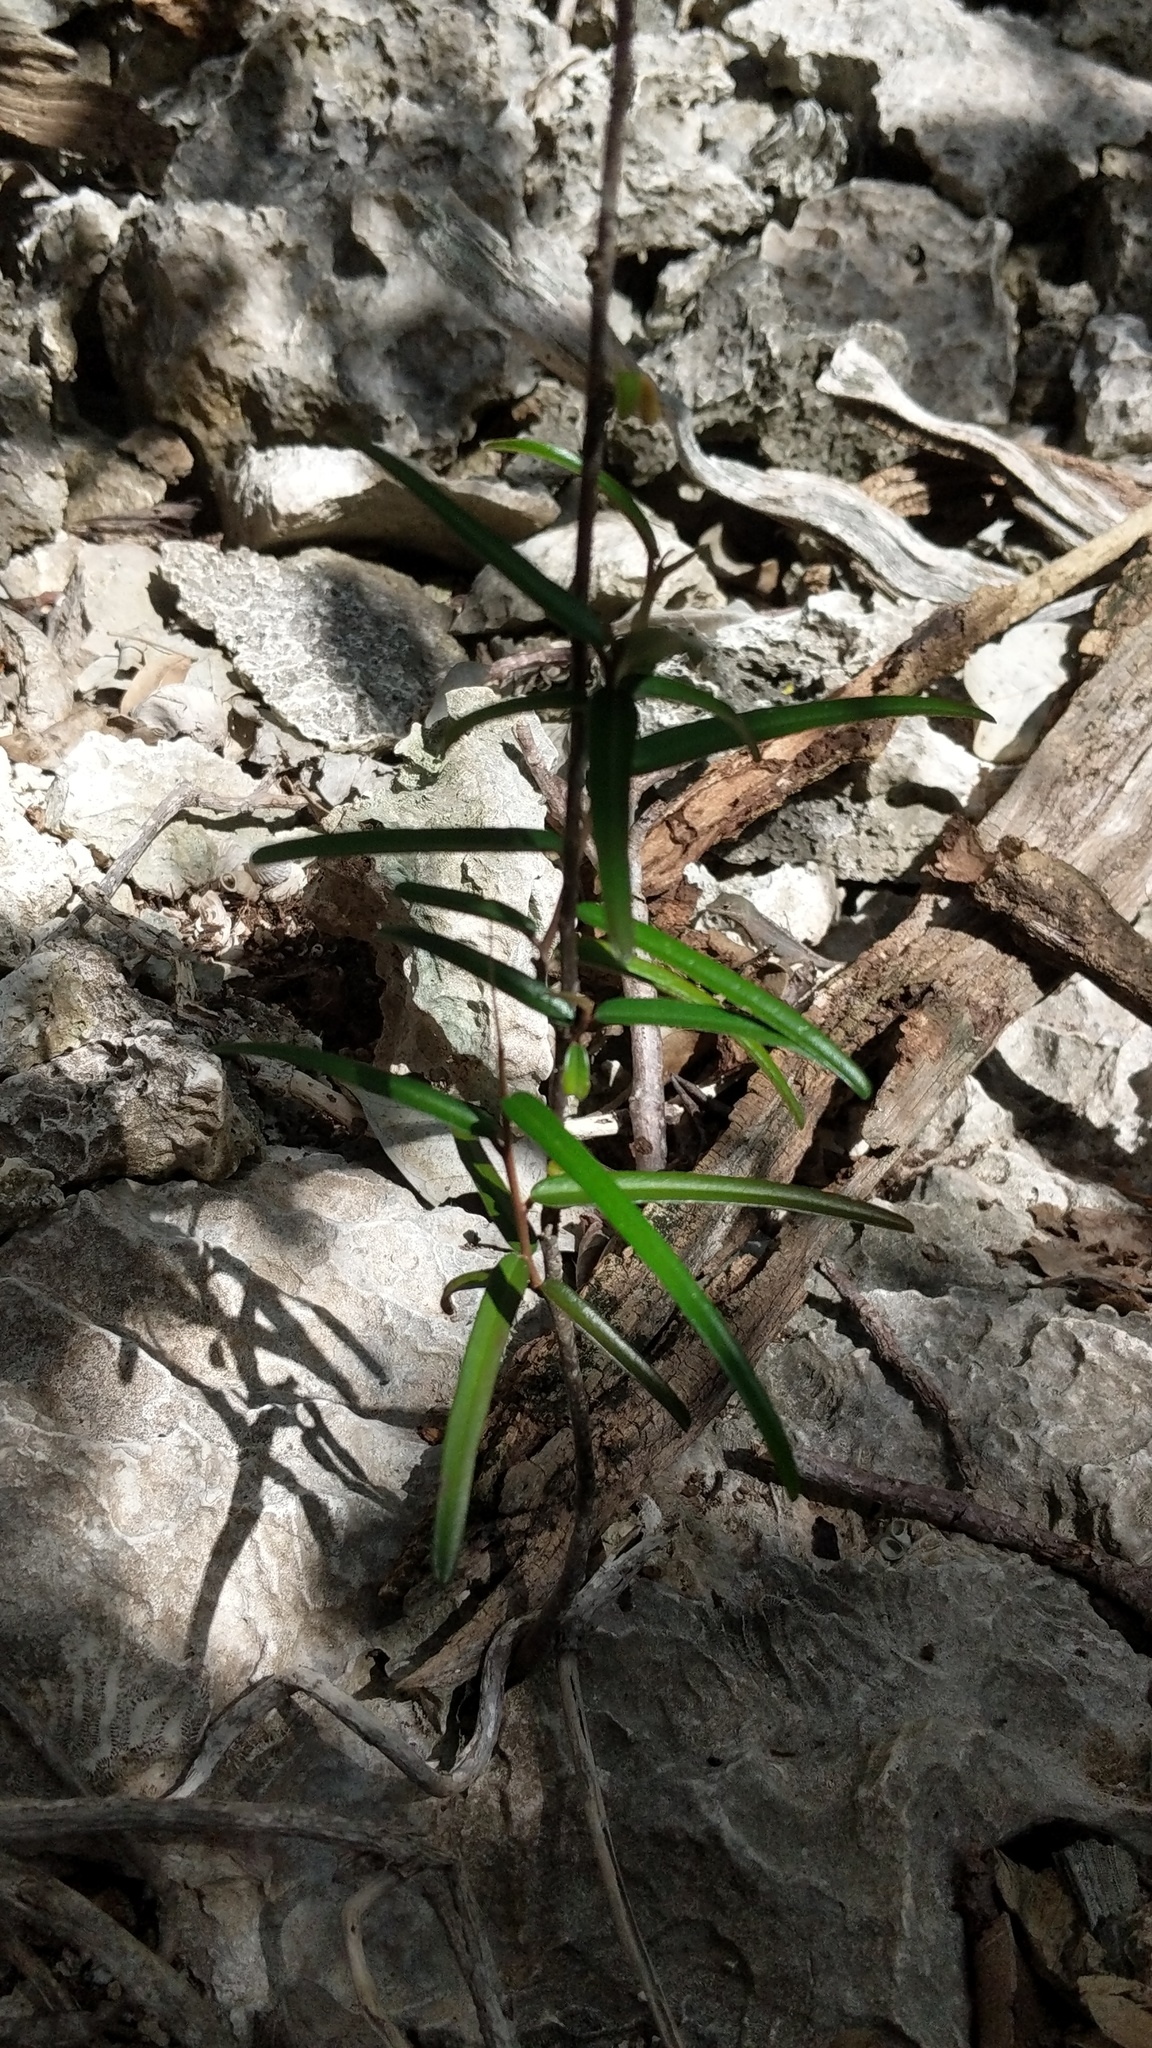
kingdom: Plantae
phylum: Tracheophyta
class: Magnoliopsida
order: Malpighiales
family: Euphorbiaceae
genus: Croton
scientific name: Croton linearis
